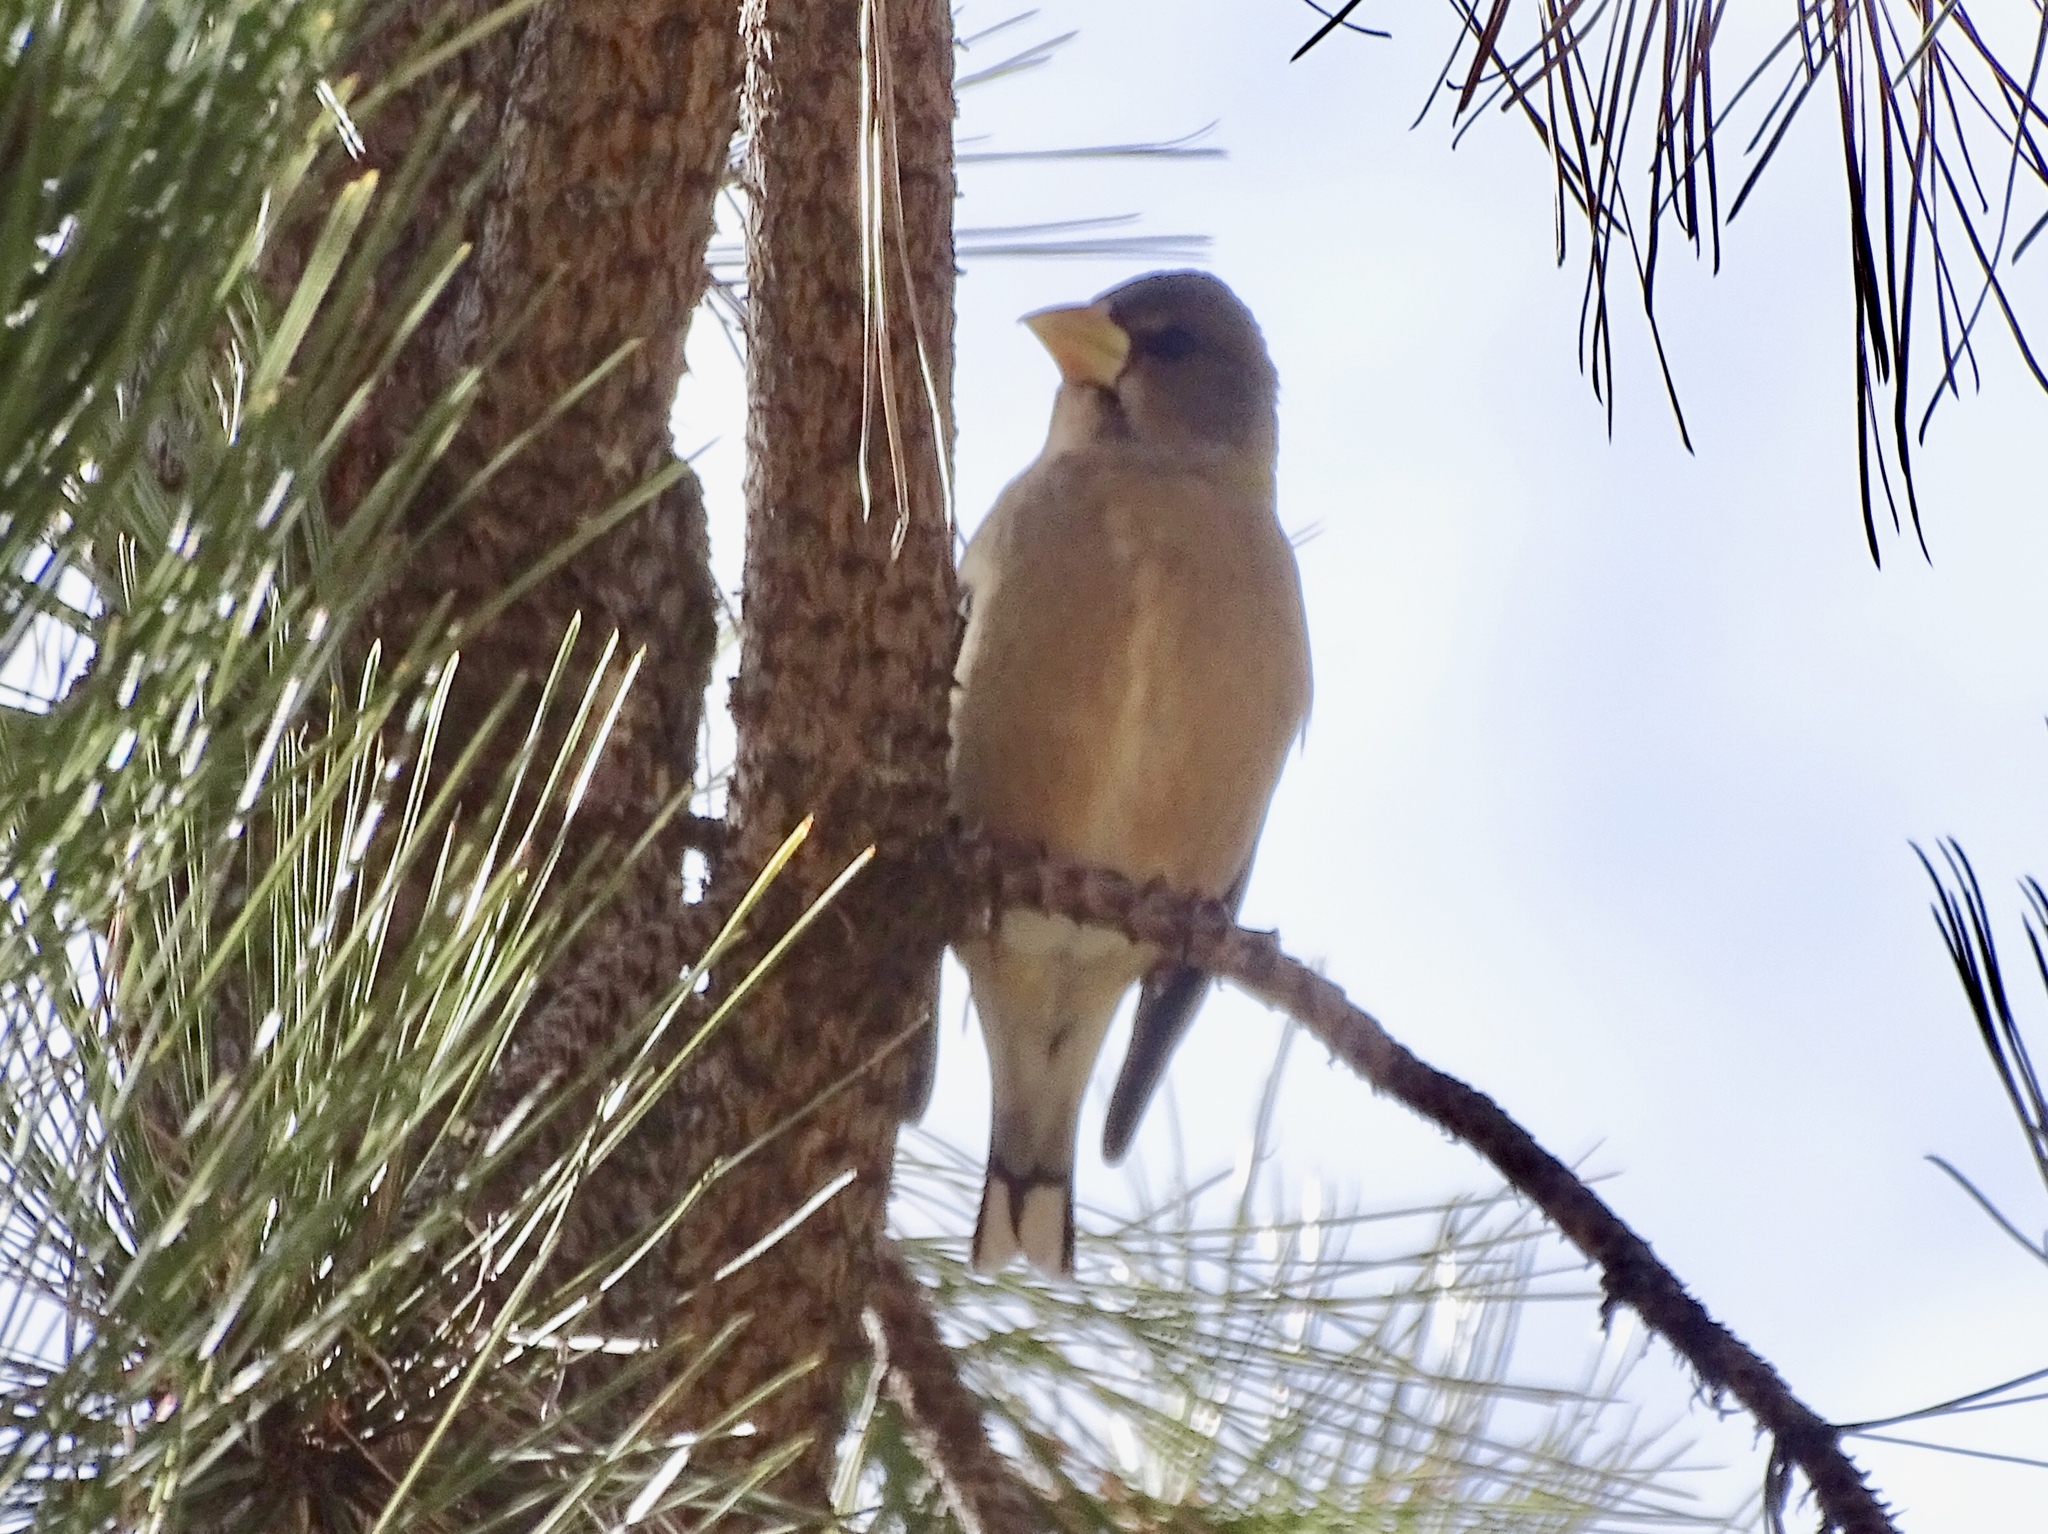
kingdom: Animalia
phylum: Chordata
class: Aves
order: Passeriformes
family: Fringillidae
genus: Hesperiphona
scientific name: Hesperiphona vespertina
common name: Evening grosbeak
